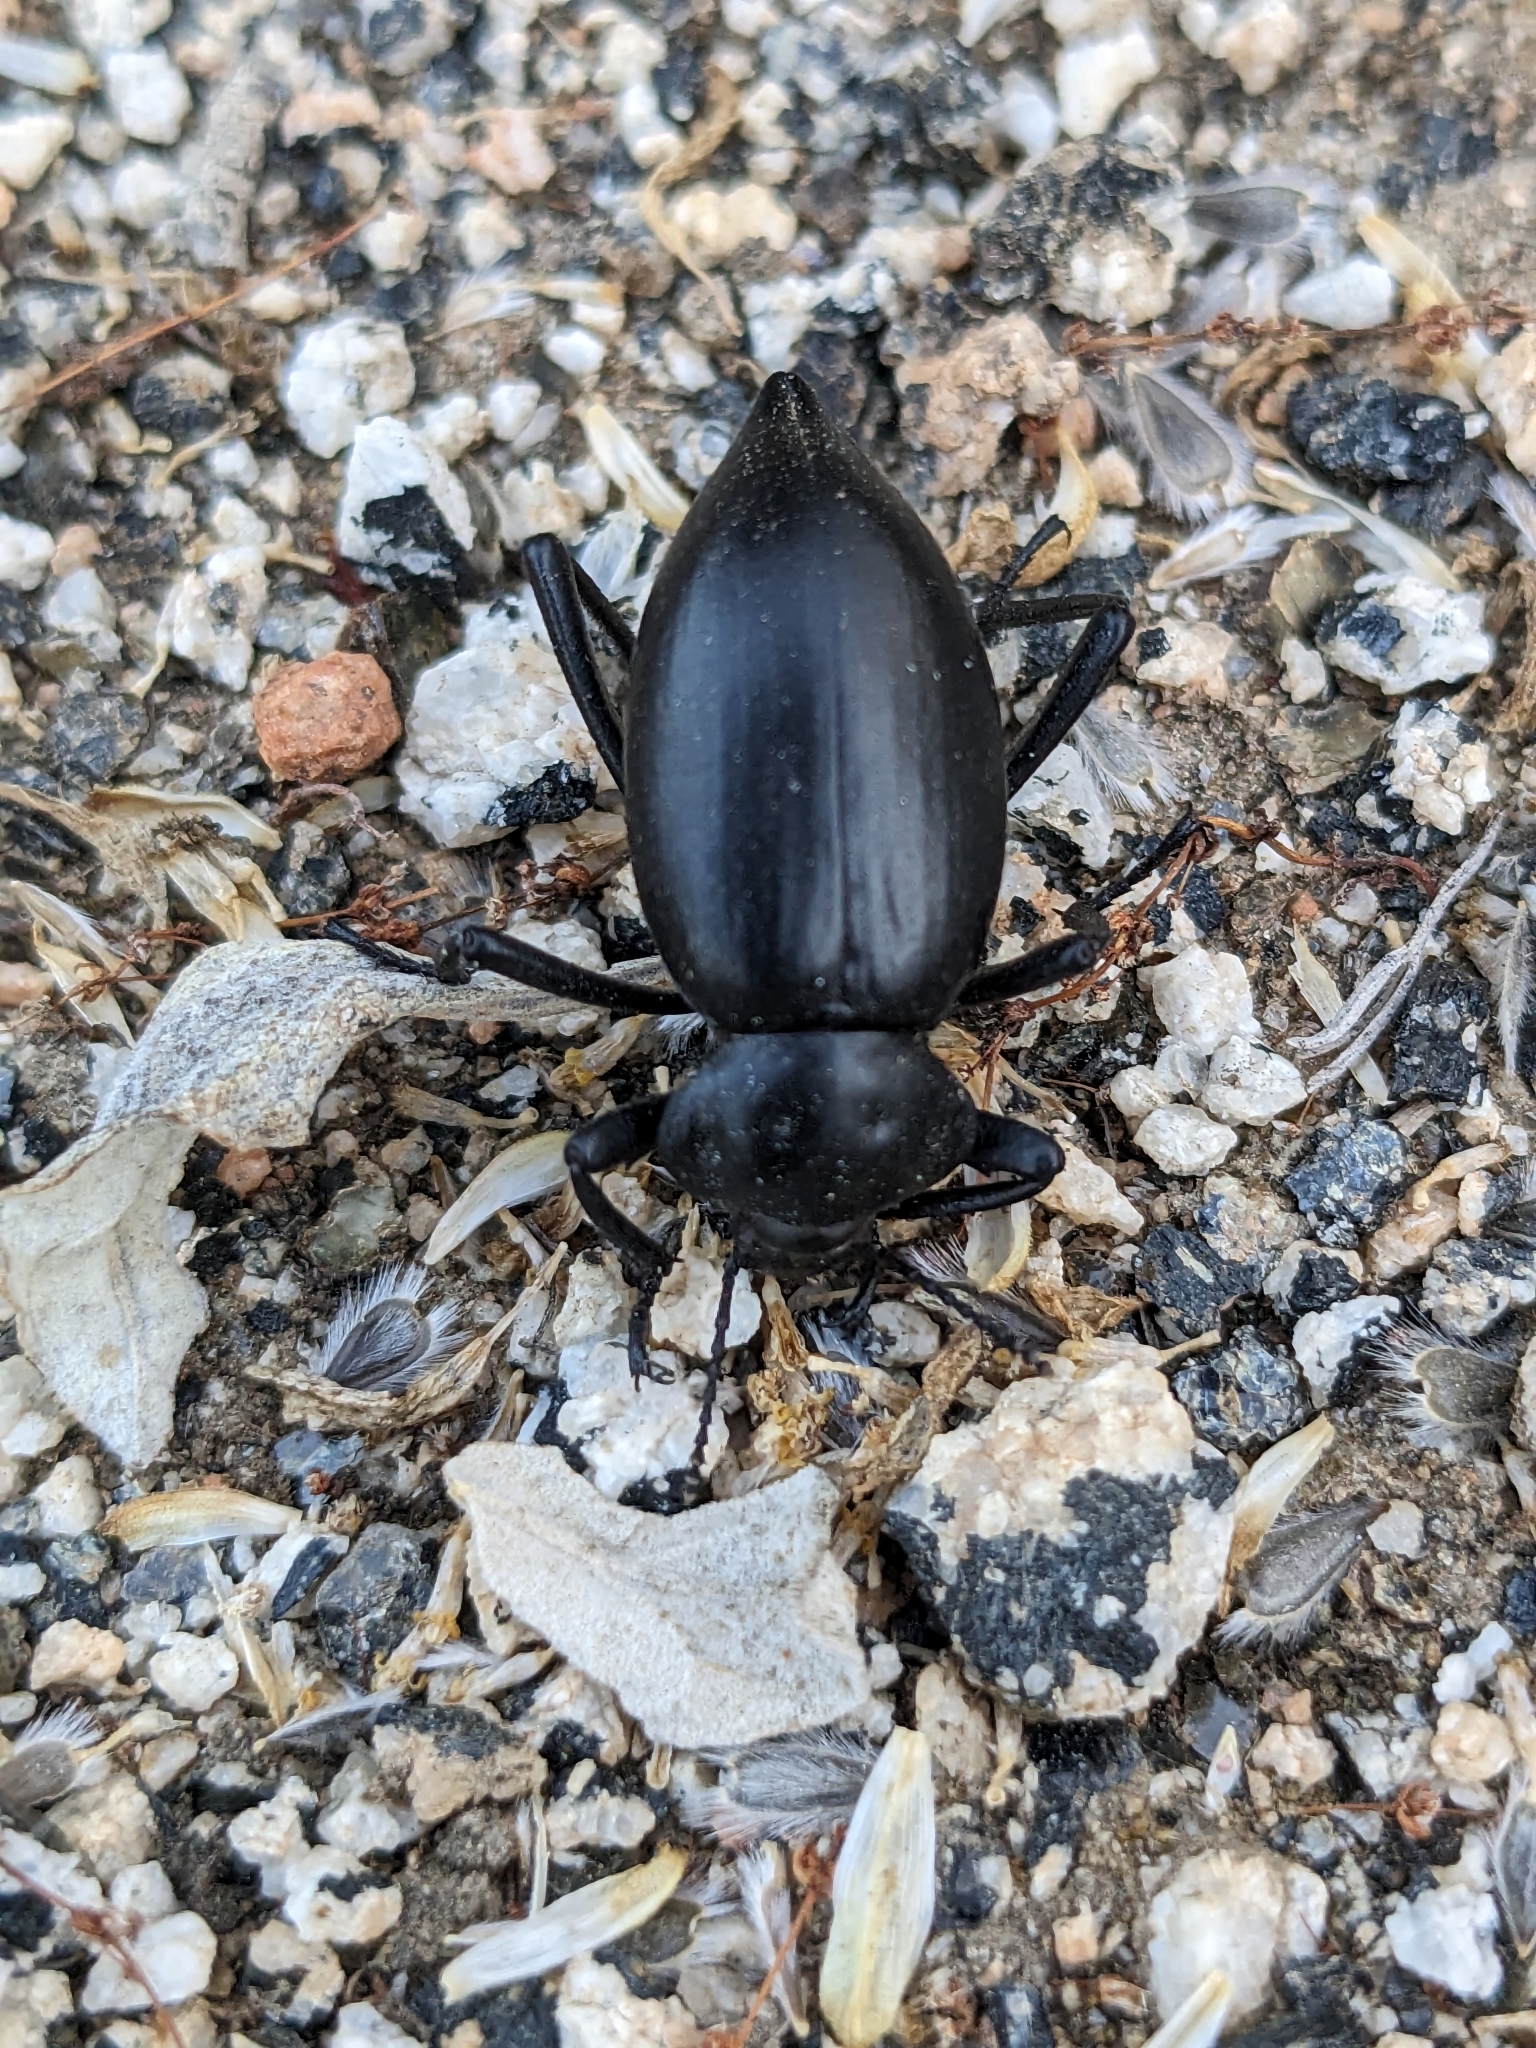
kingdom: Animalia
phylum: Arthropoda
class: Insecta
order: Coleoptera
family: Tenebrionidae
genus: Eleodes
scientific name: Eleodes acuticauda
